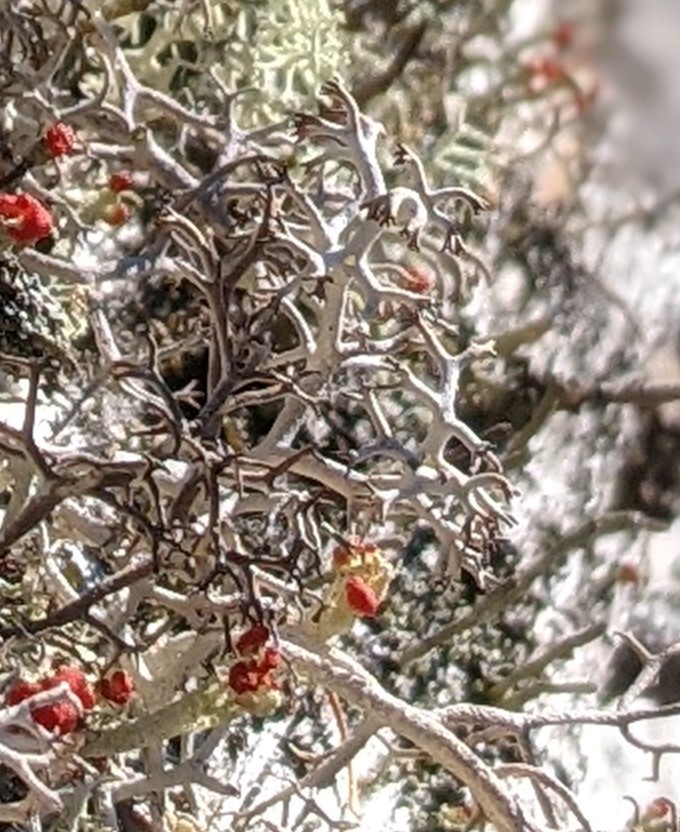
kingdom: Fungi
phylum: Ascomycota
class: Lecanoromycetes
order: Lecanorales
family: Cladoniaceae
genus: Cladonia
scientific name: Cladonia rangiferina
